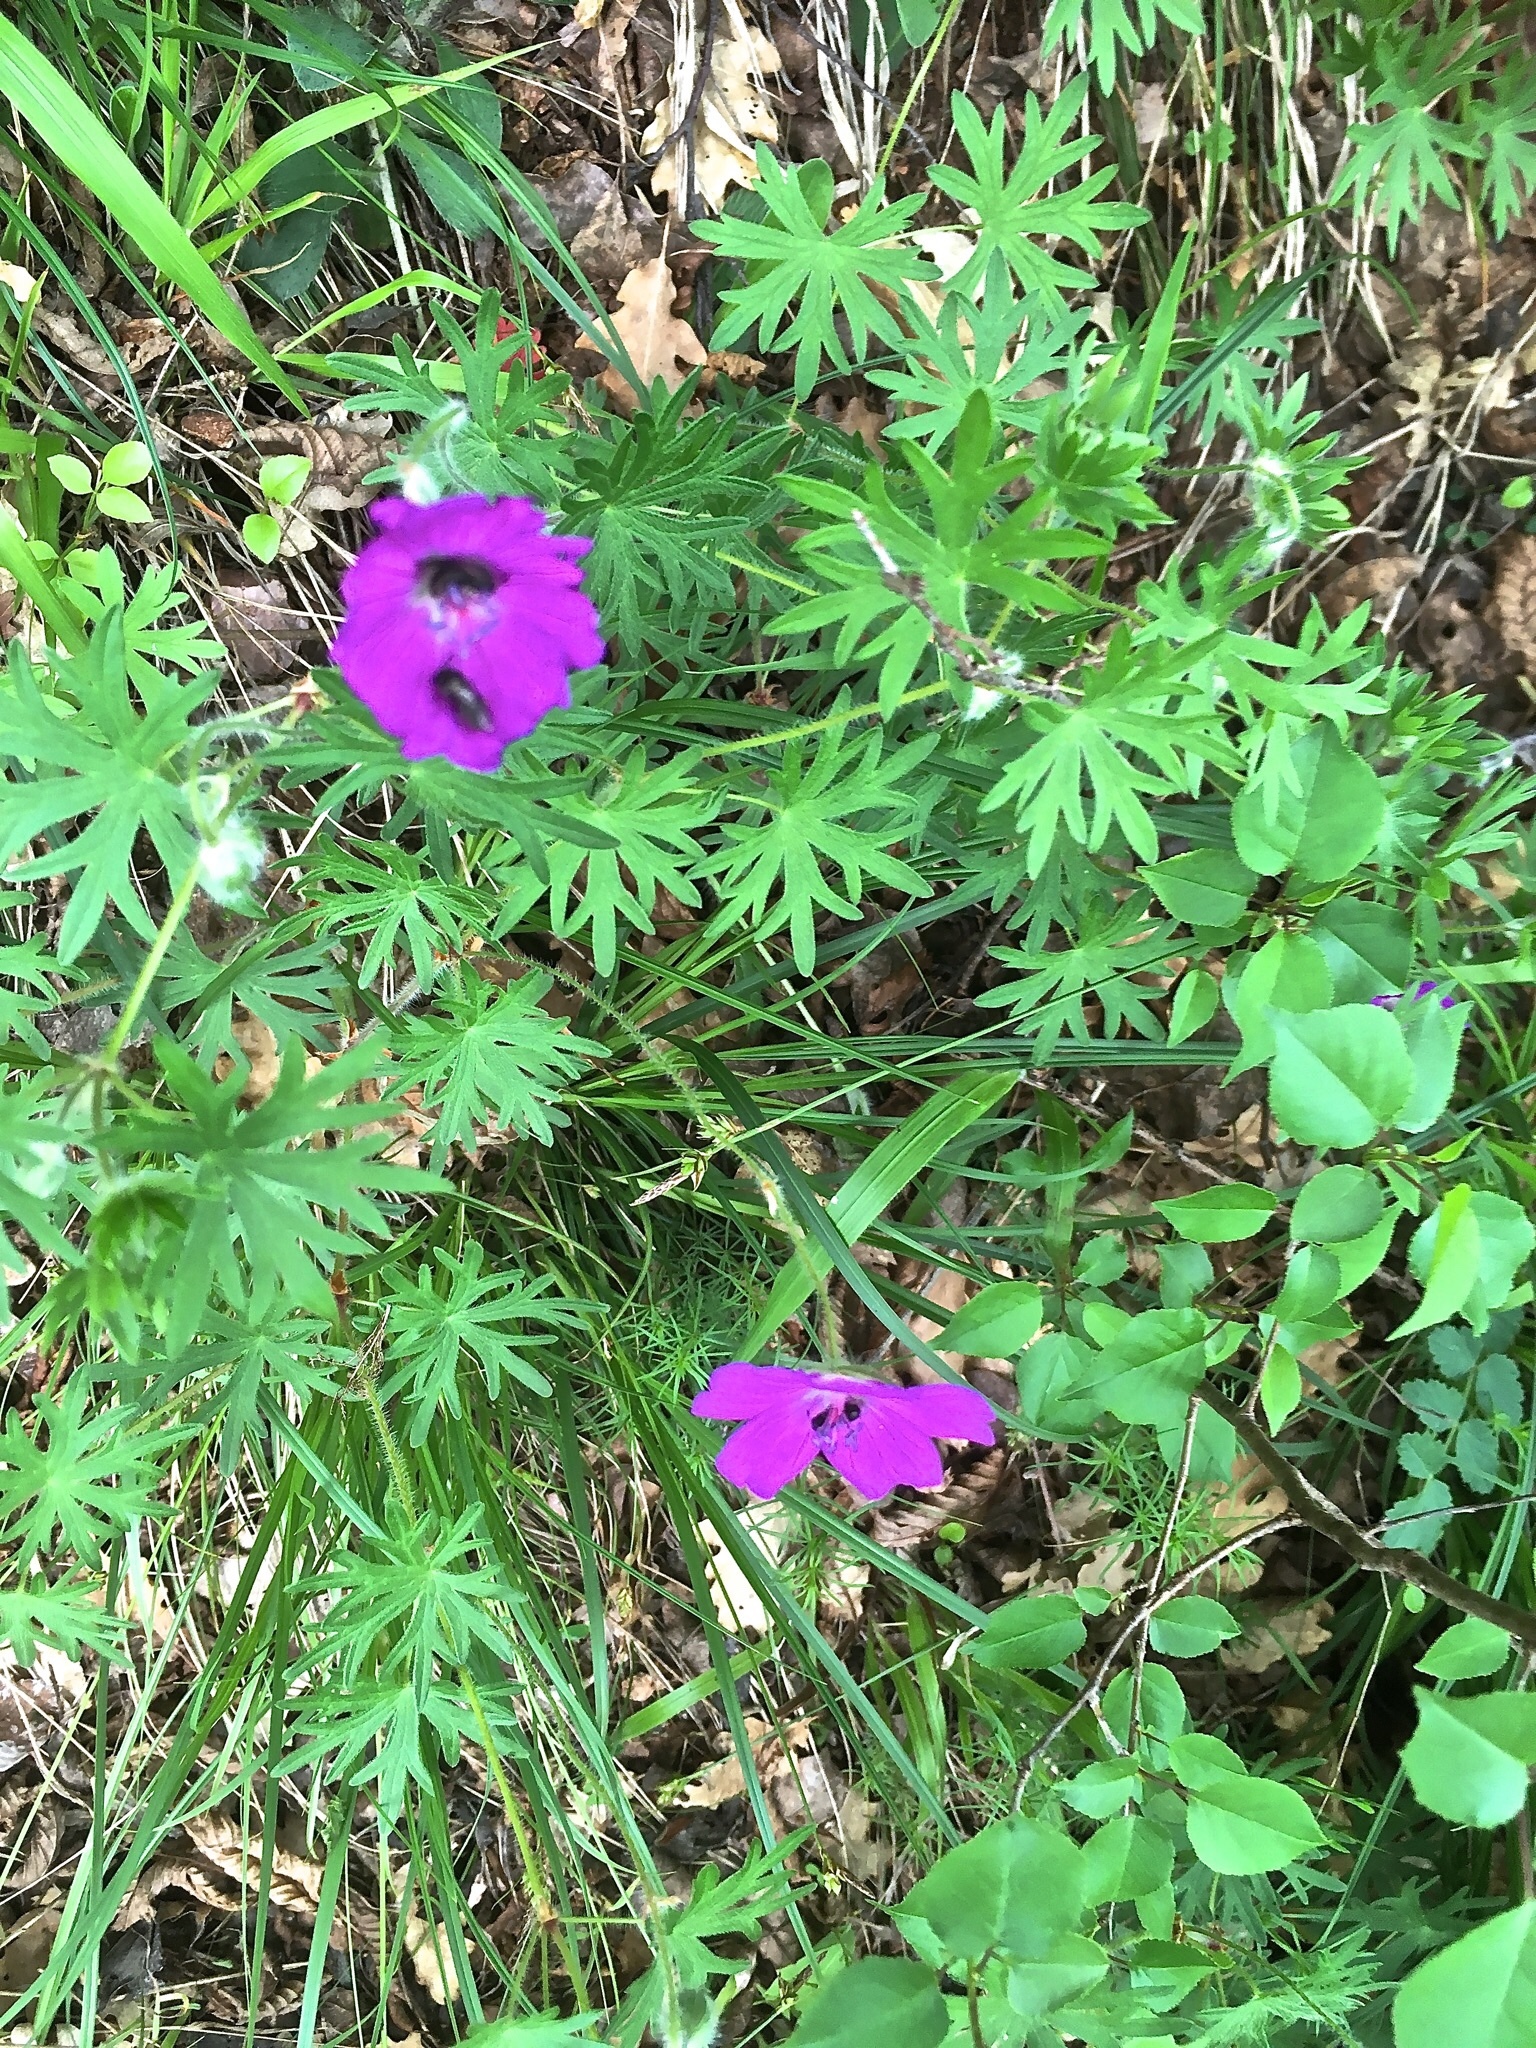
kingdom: Plantae
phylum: Tracheophyta
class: Magnoliopsida
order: Geraniales
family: Geraniaceae
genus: Geranium
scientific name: Geranium sanguineum
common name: Bloody crane's-bill
